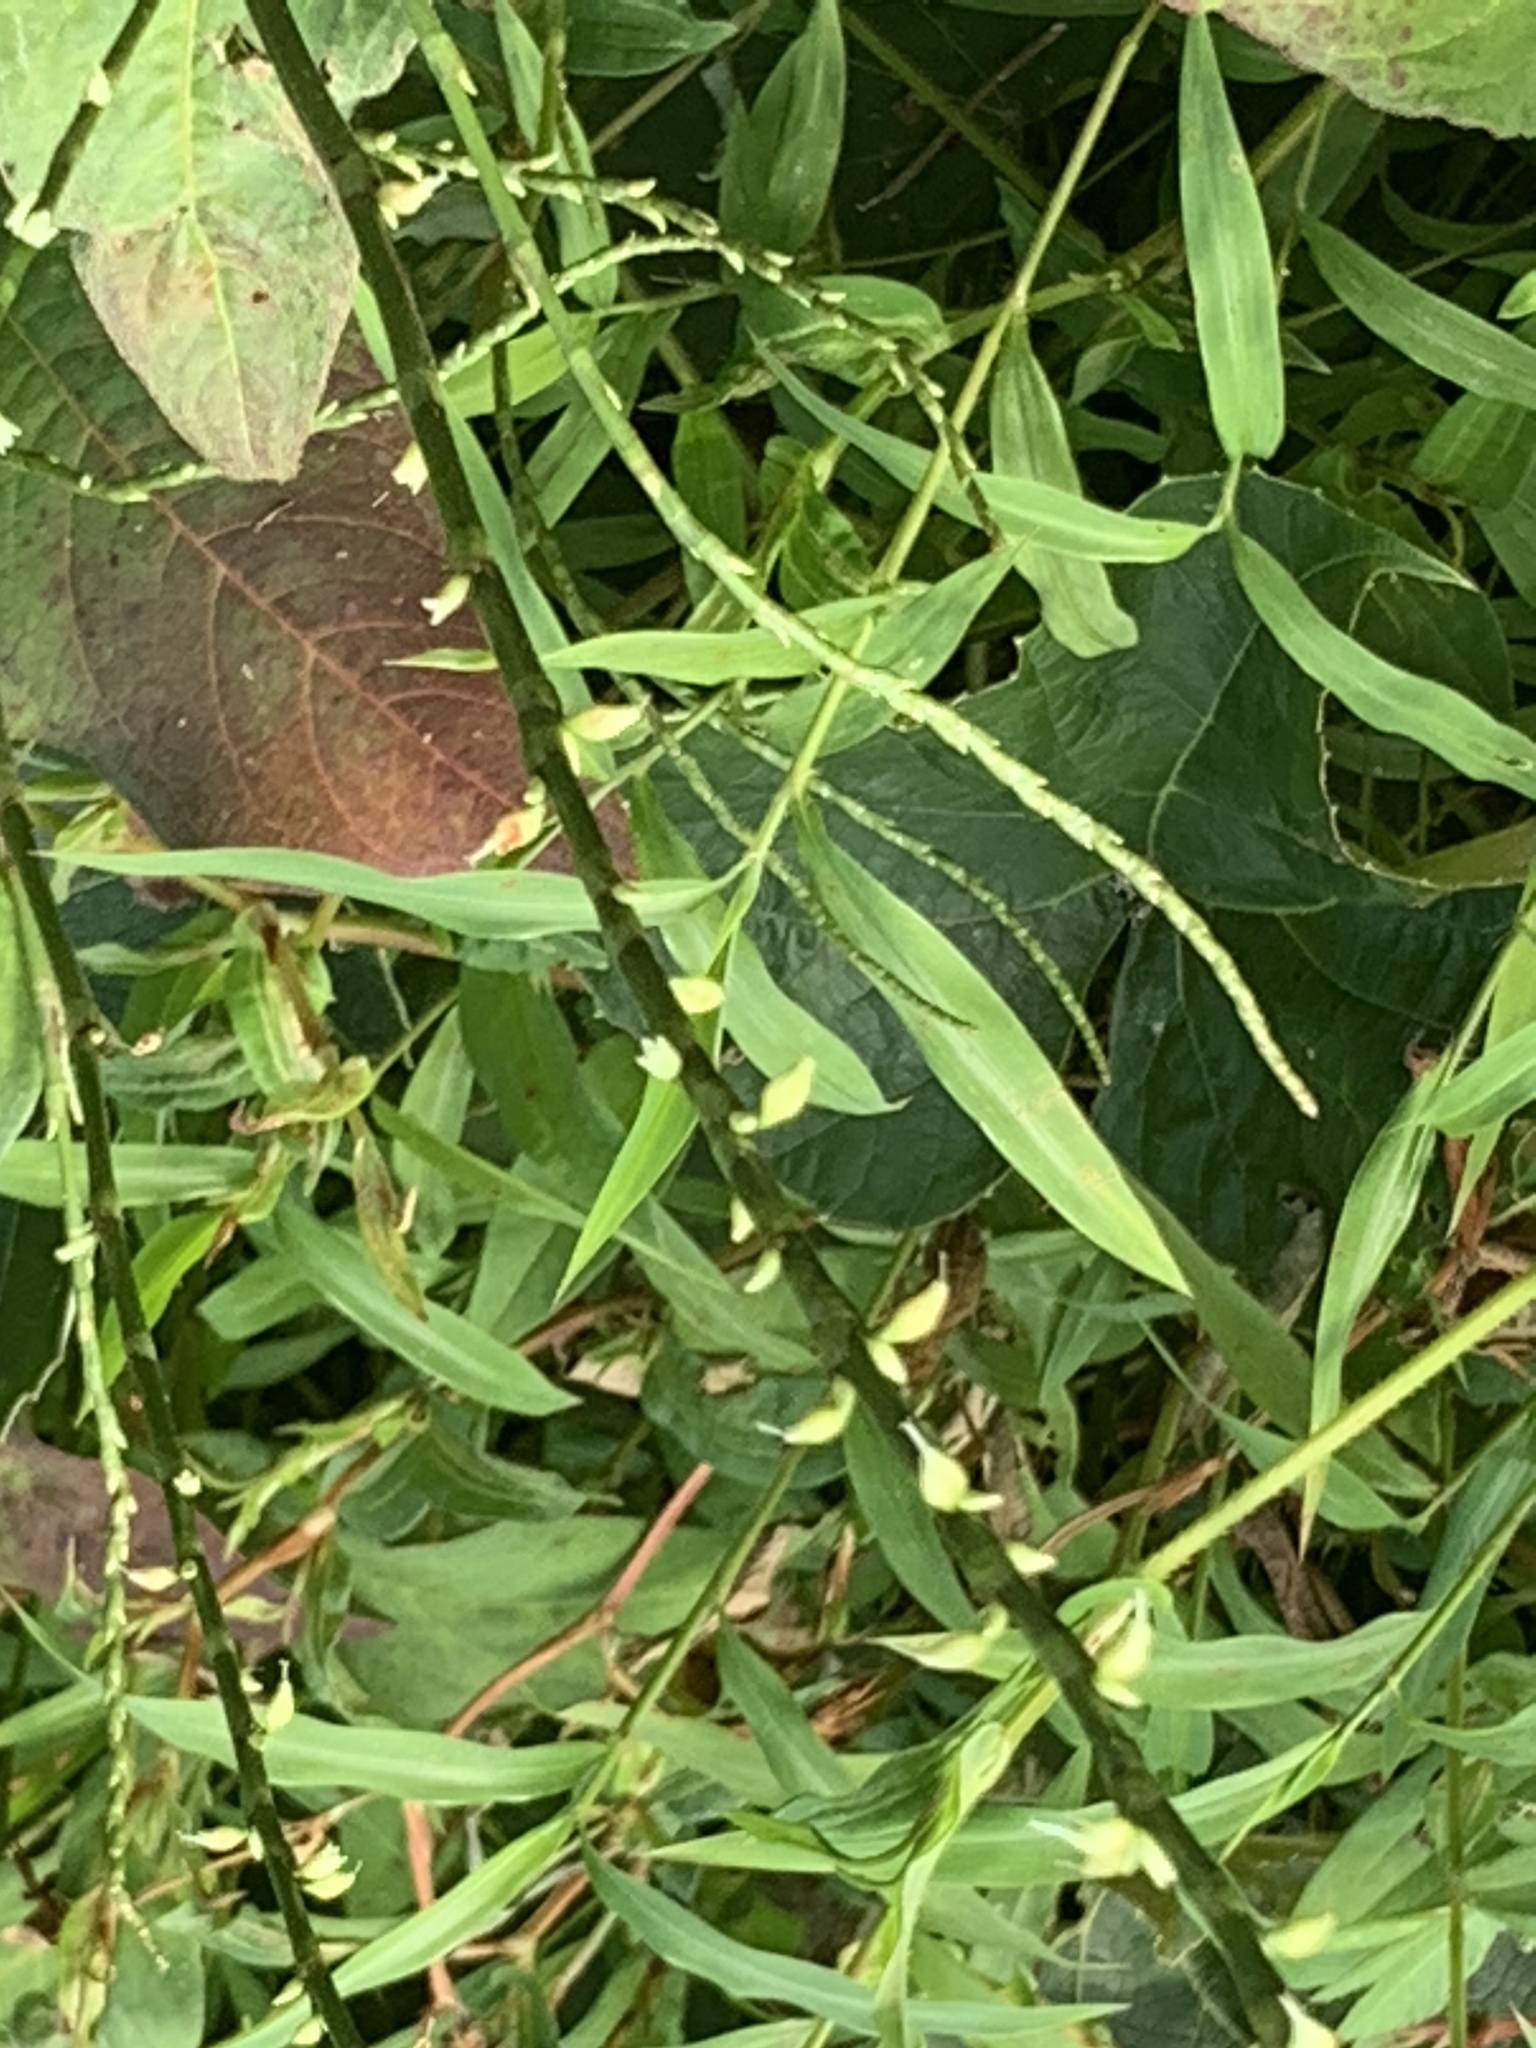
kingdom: Plantae
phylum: Tracheophyta
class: Magnoliopsida
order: Caryophyllales
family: Polygonaceae
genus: Persicaria
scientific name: Persicaria virginiana
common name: Jumpseed
